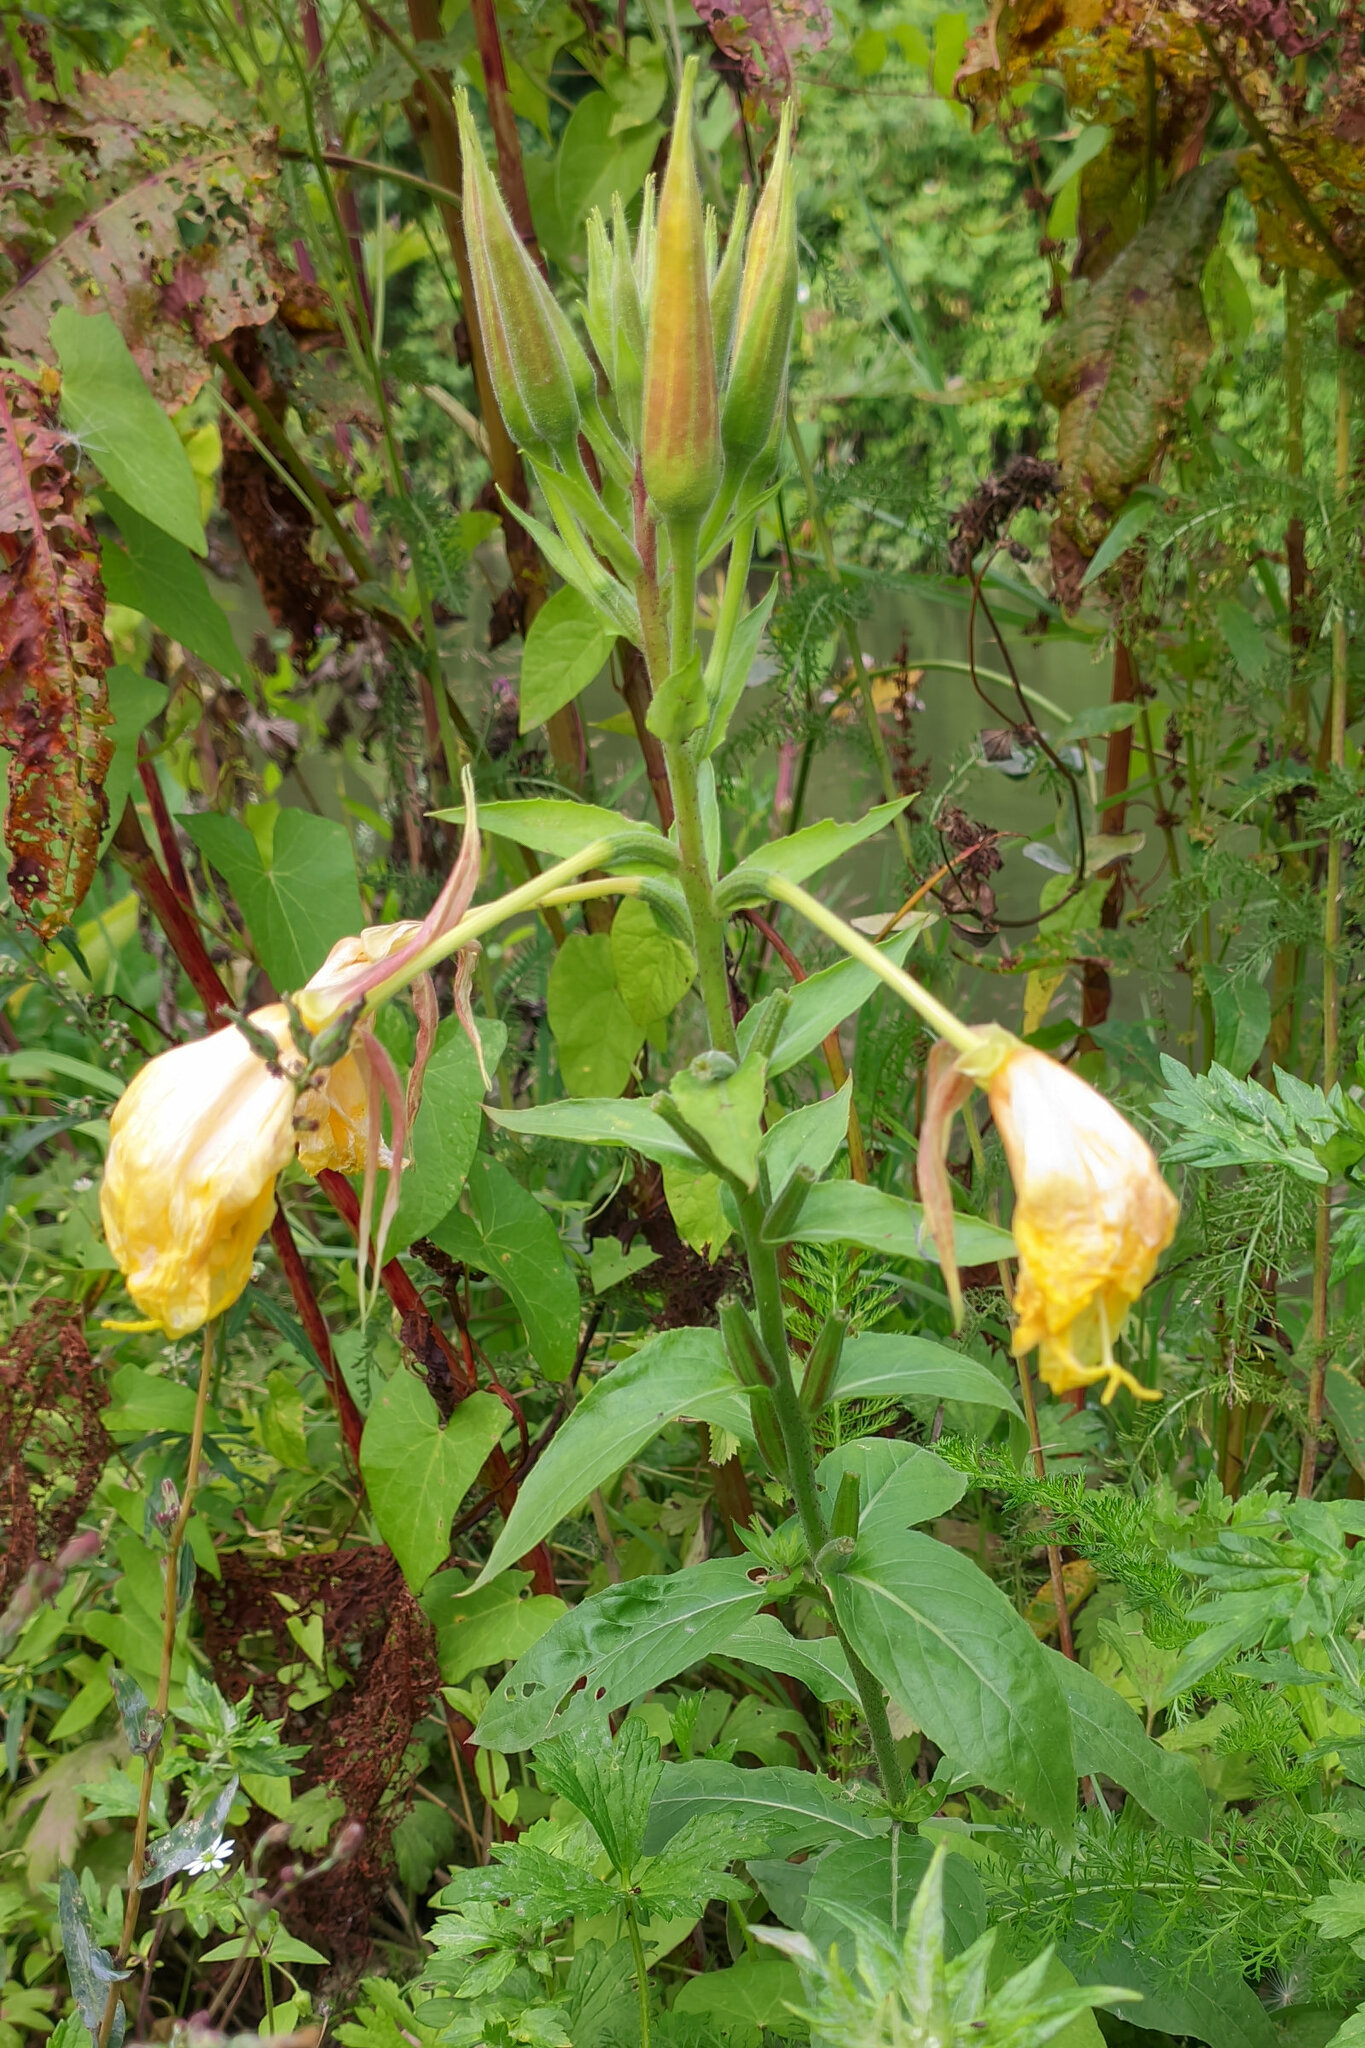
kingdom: Plantae
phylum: Tracheophyta
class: Magnoliopsida
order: Myrtales
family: Onagraceae
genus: Oenothera
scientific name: Oenothera glazioviana
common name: Large-flowered evening-primrose
